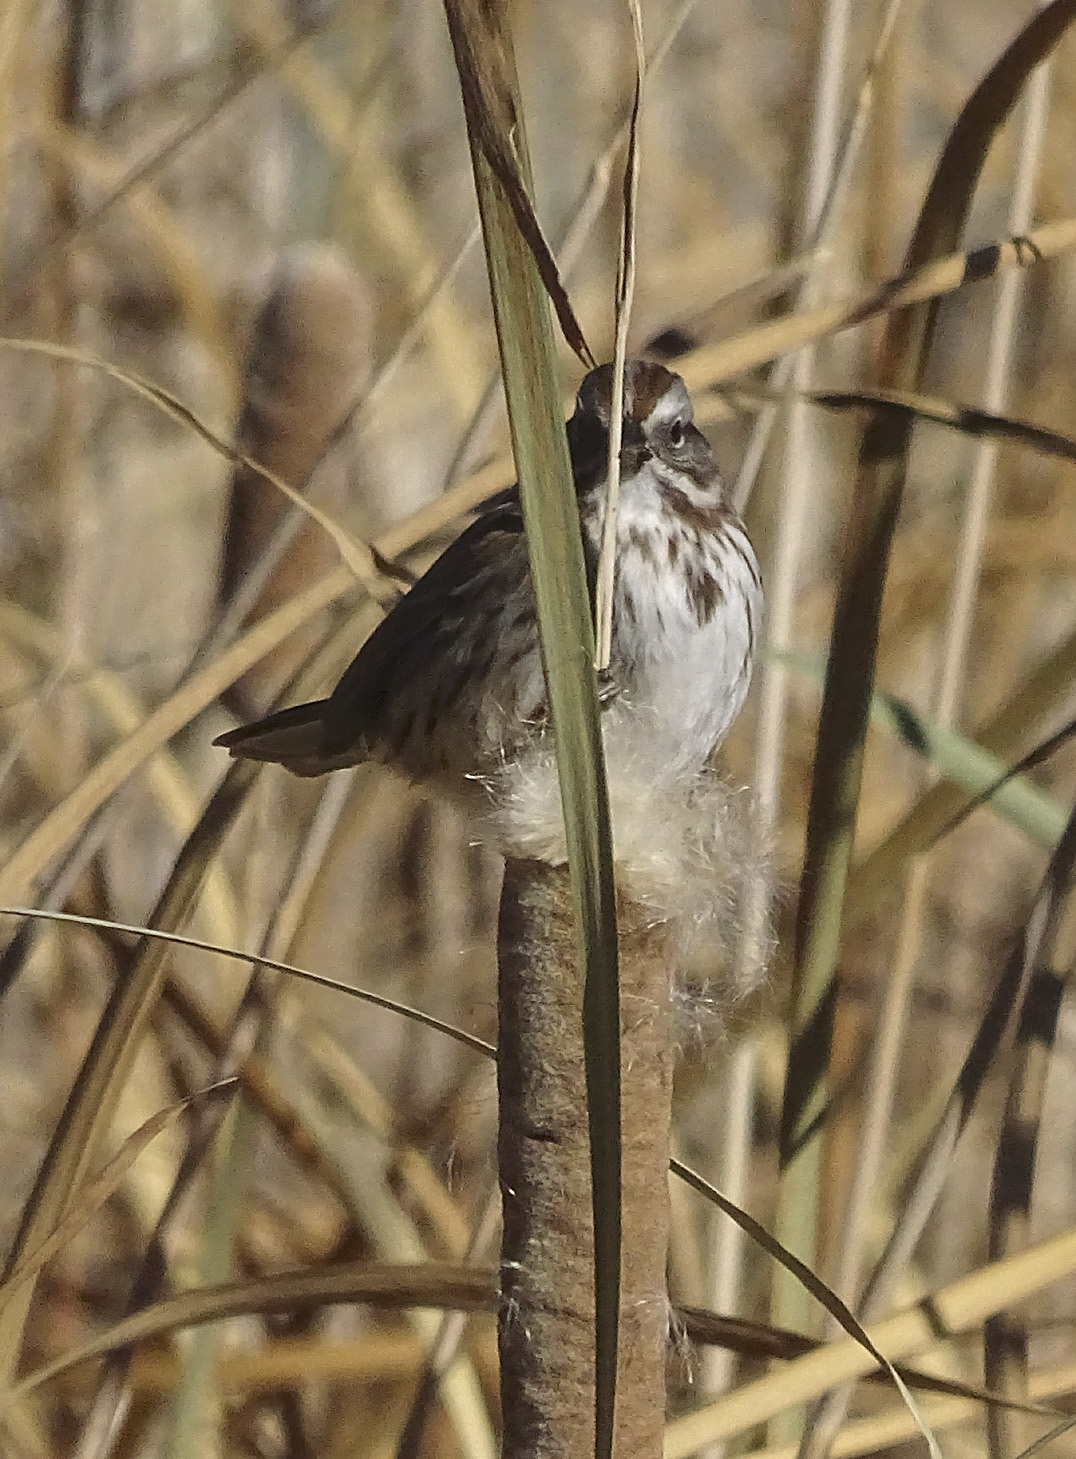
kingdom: Animalia
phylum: Chordata
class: Aves
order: Passeriformes
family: Passerellidae
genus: Melospiza
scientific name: Melospiza melodia
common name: Song sparrow
